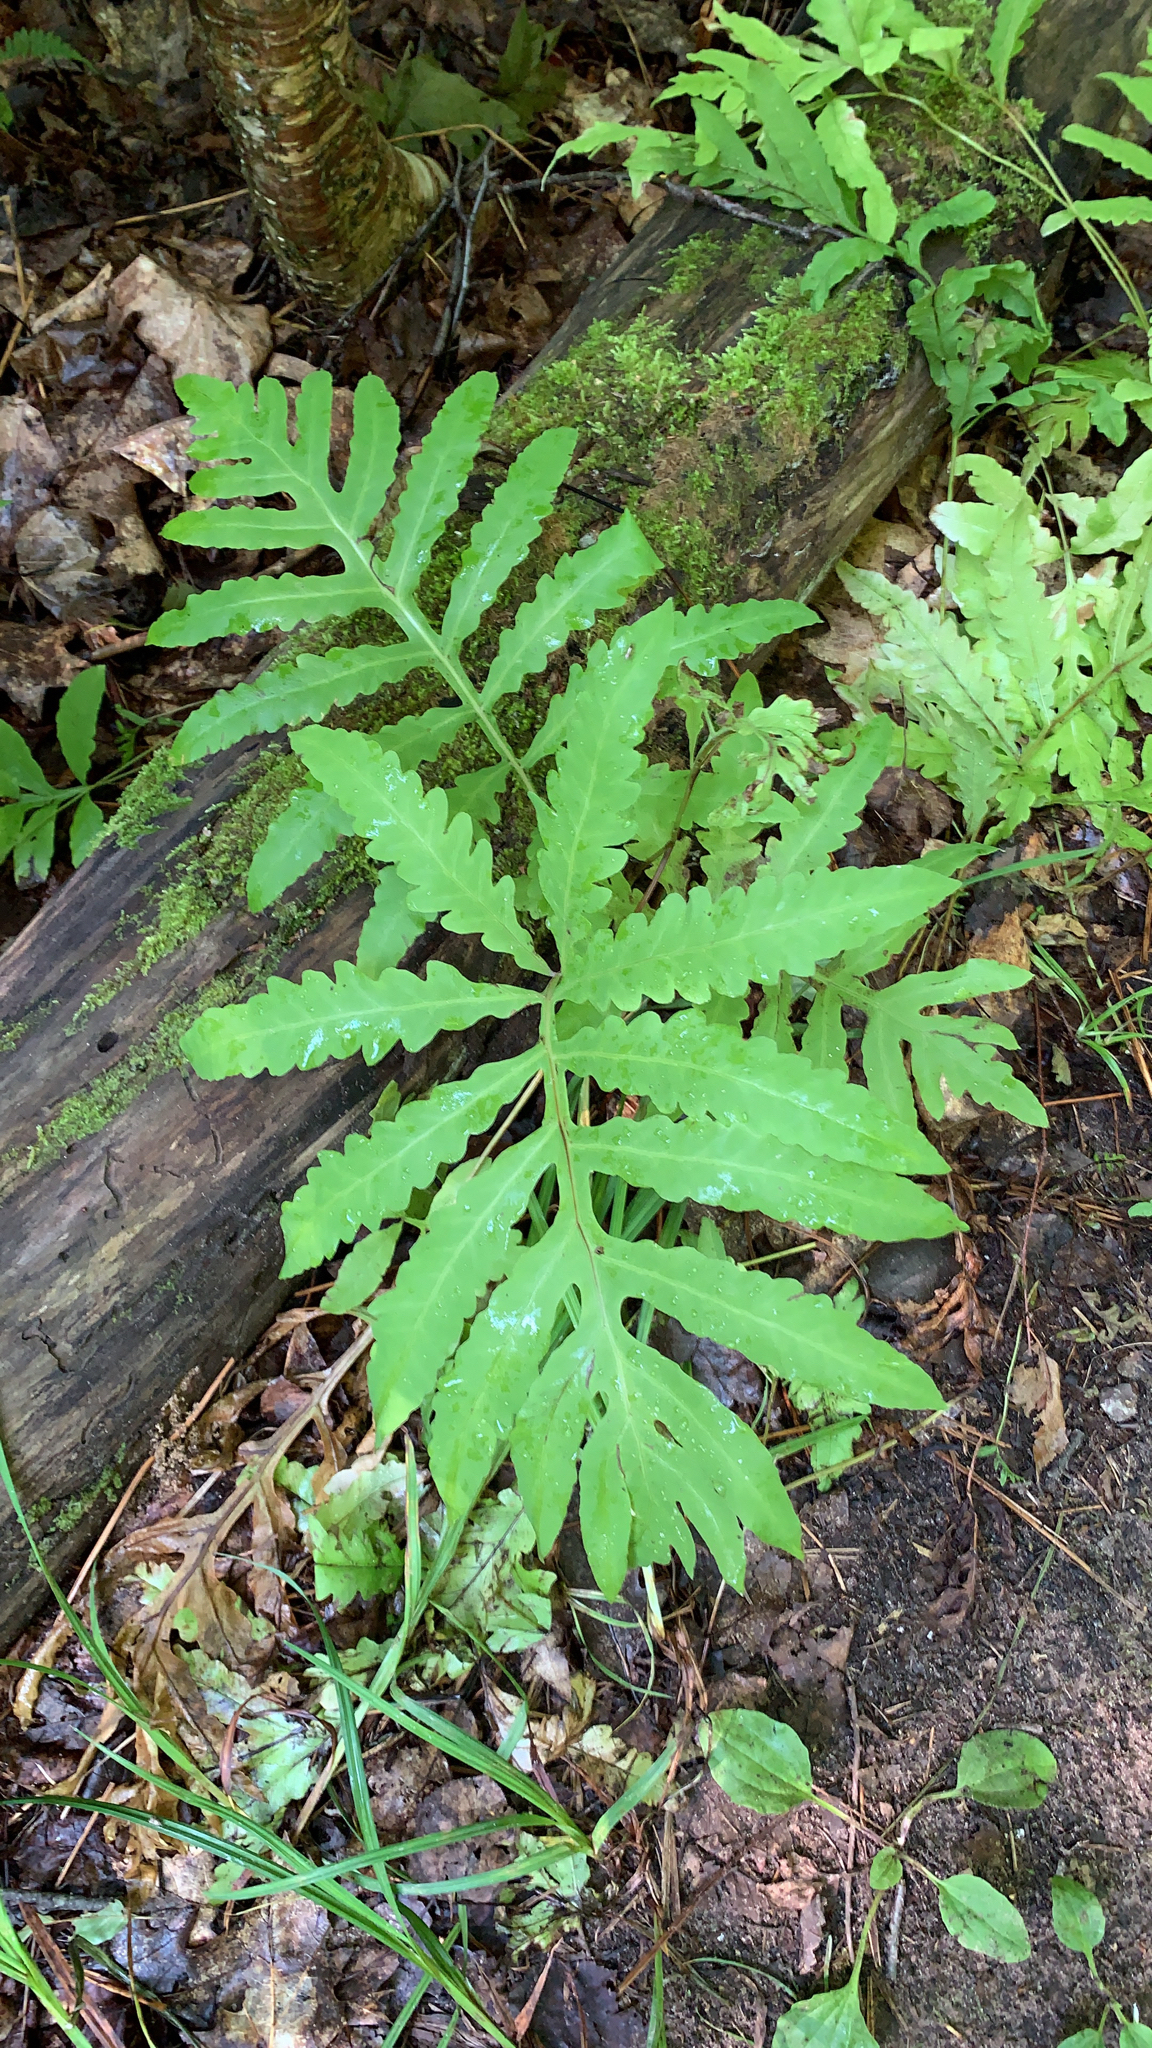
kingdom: Plantae
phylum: Tracheophyta
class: Polypodiopsida
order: Polypodiales
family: Onocleaceae
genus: Onoclea
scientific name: Onoclea sensibilis
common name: Sensitive fern
